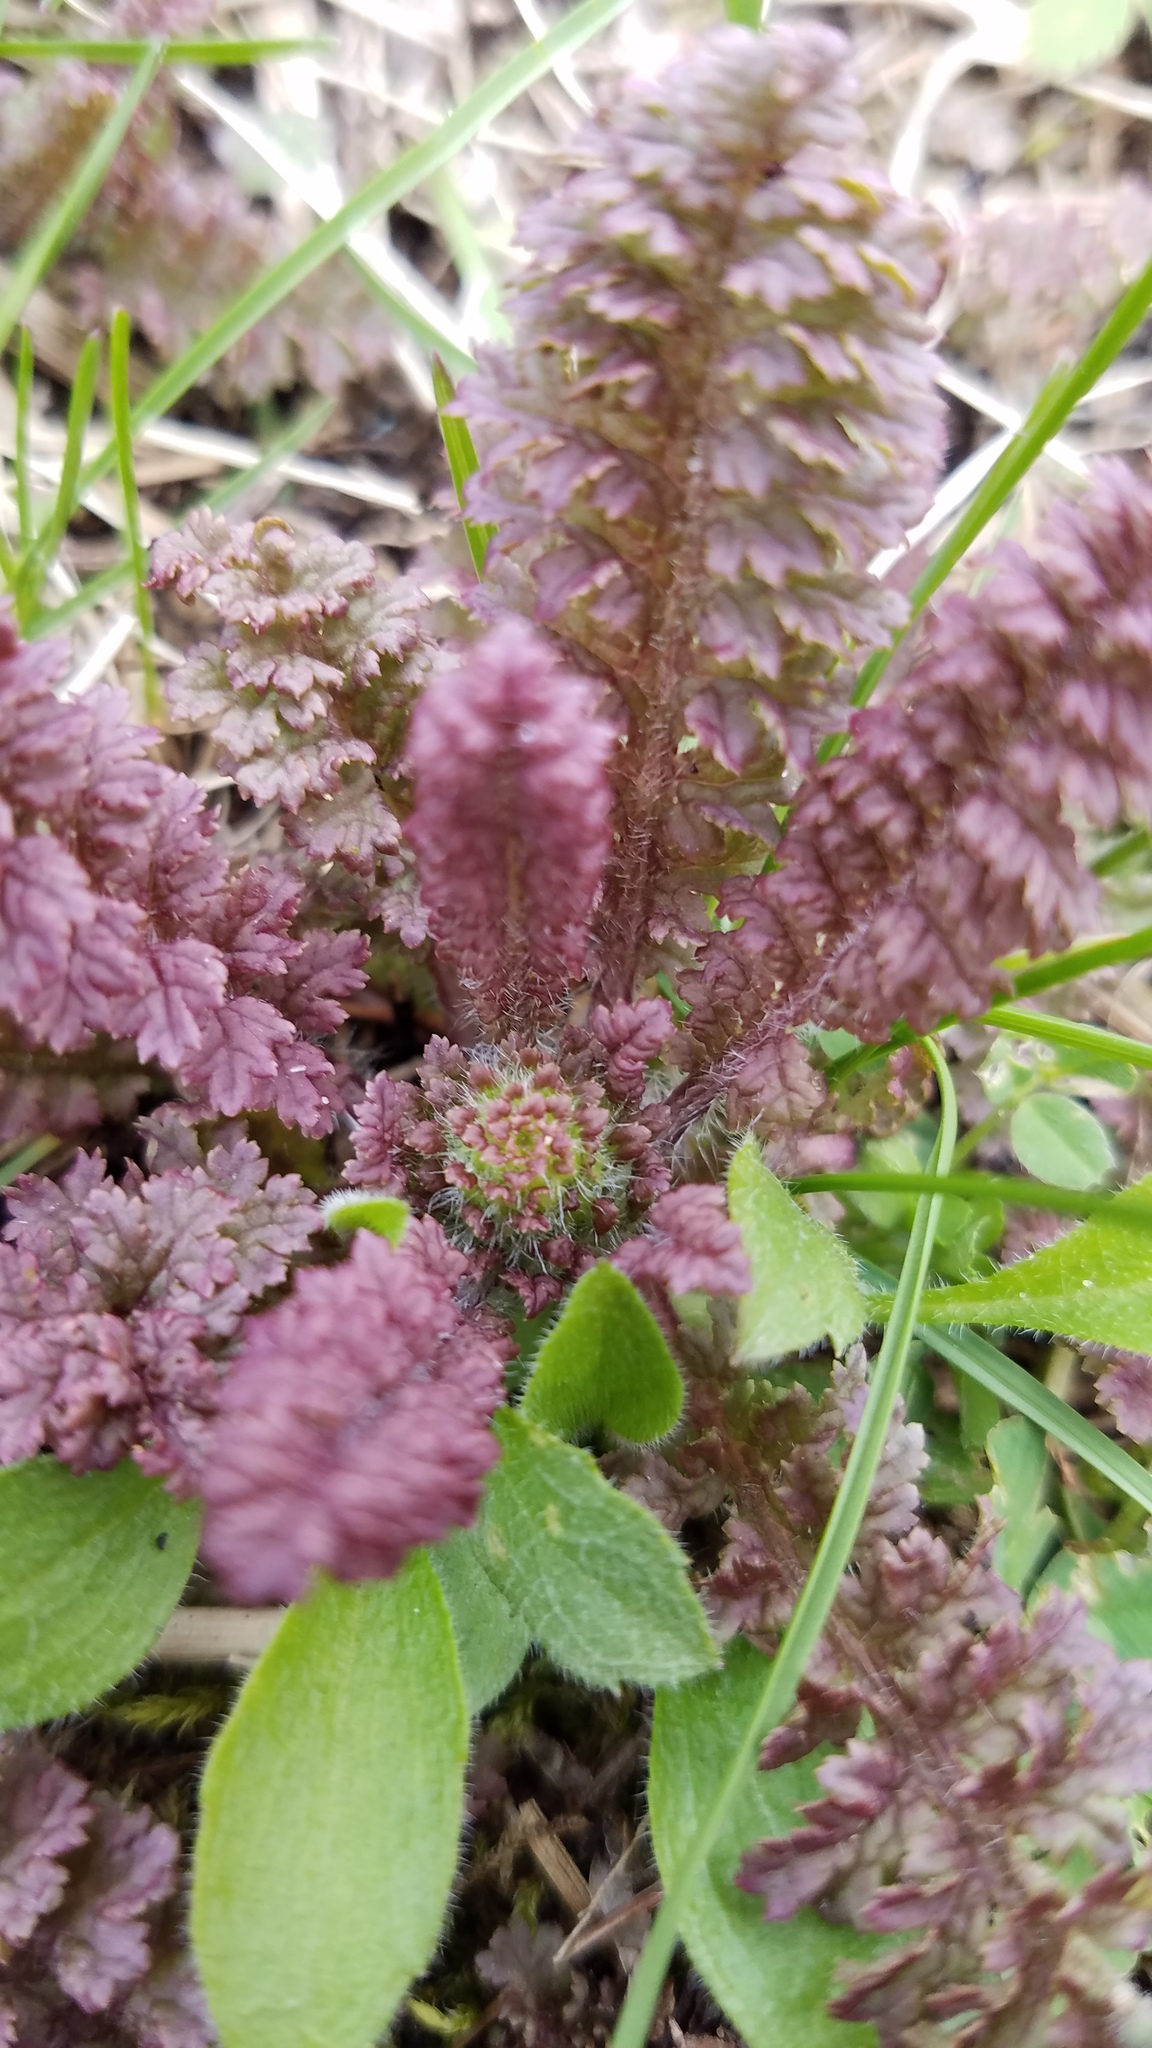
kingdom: Plantae
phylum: Tracheophyta
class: Magnoliopsida
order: Lamiales
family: Orobanchaceae
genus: Pedicularis
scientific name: Pedicularis canadensis
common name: Early lousewort
